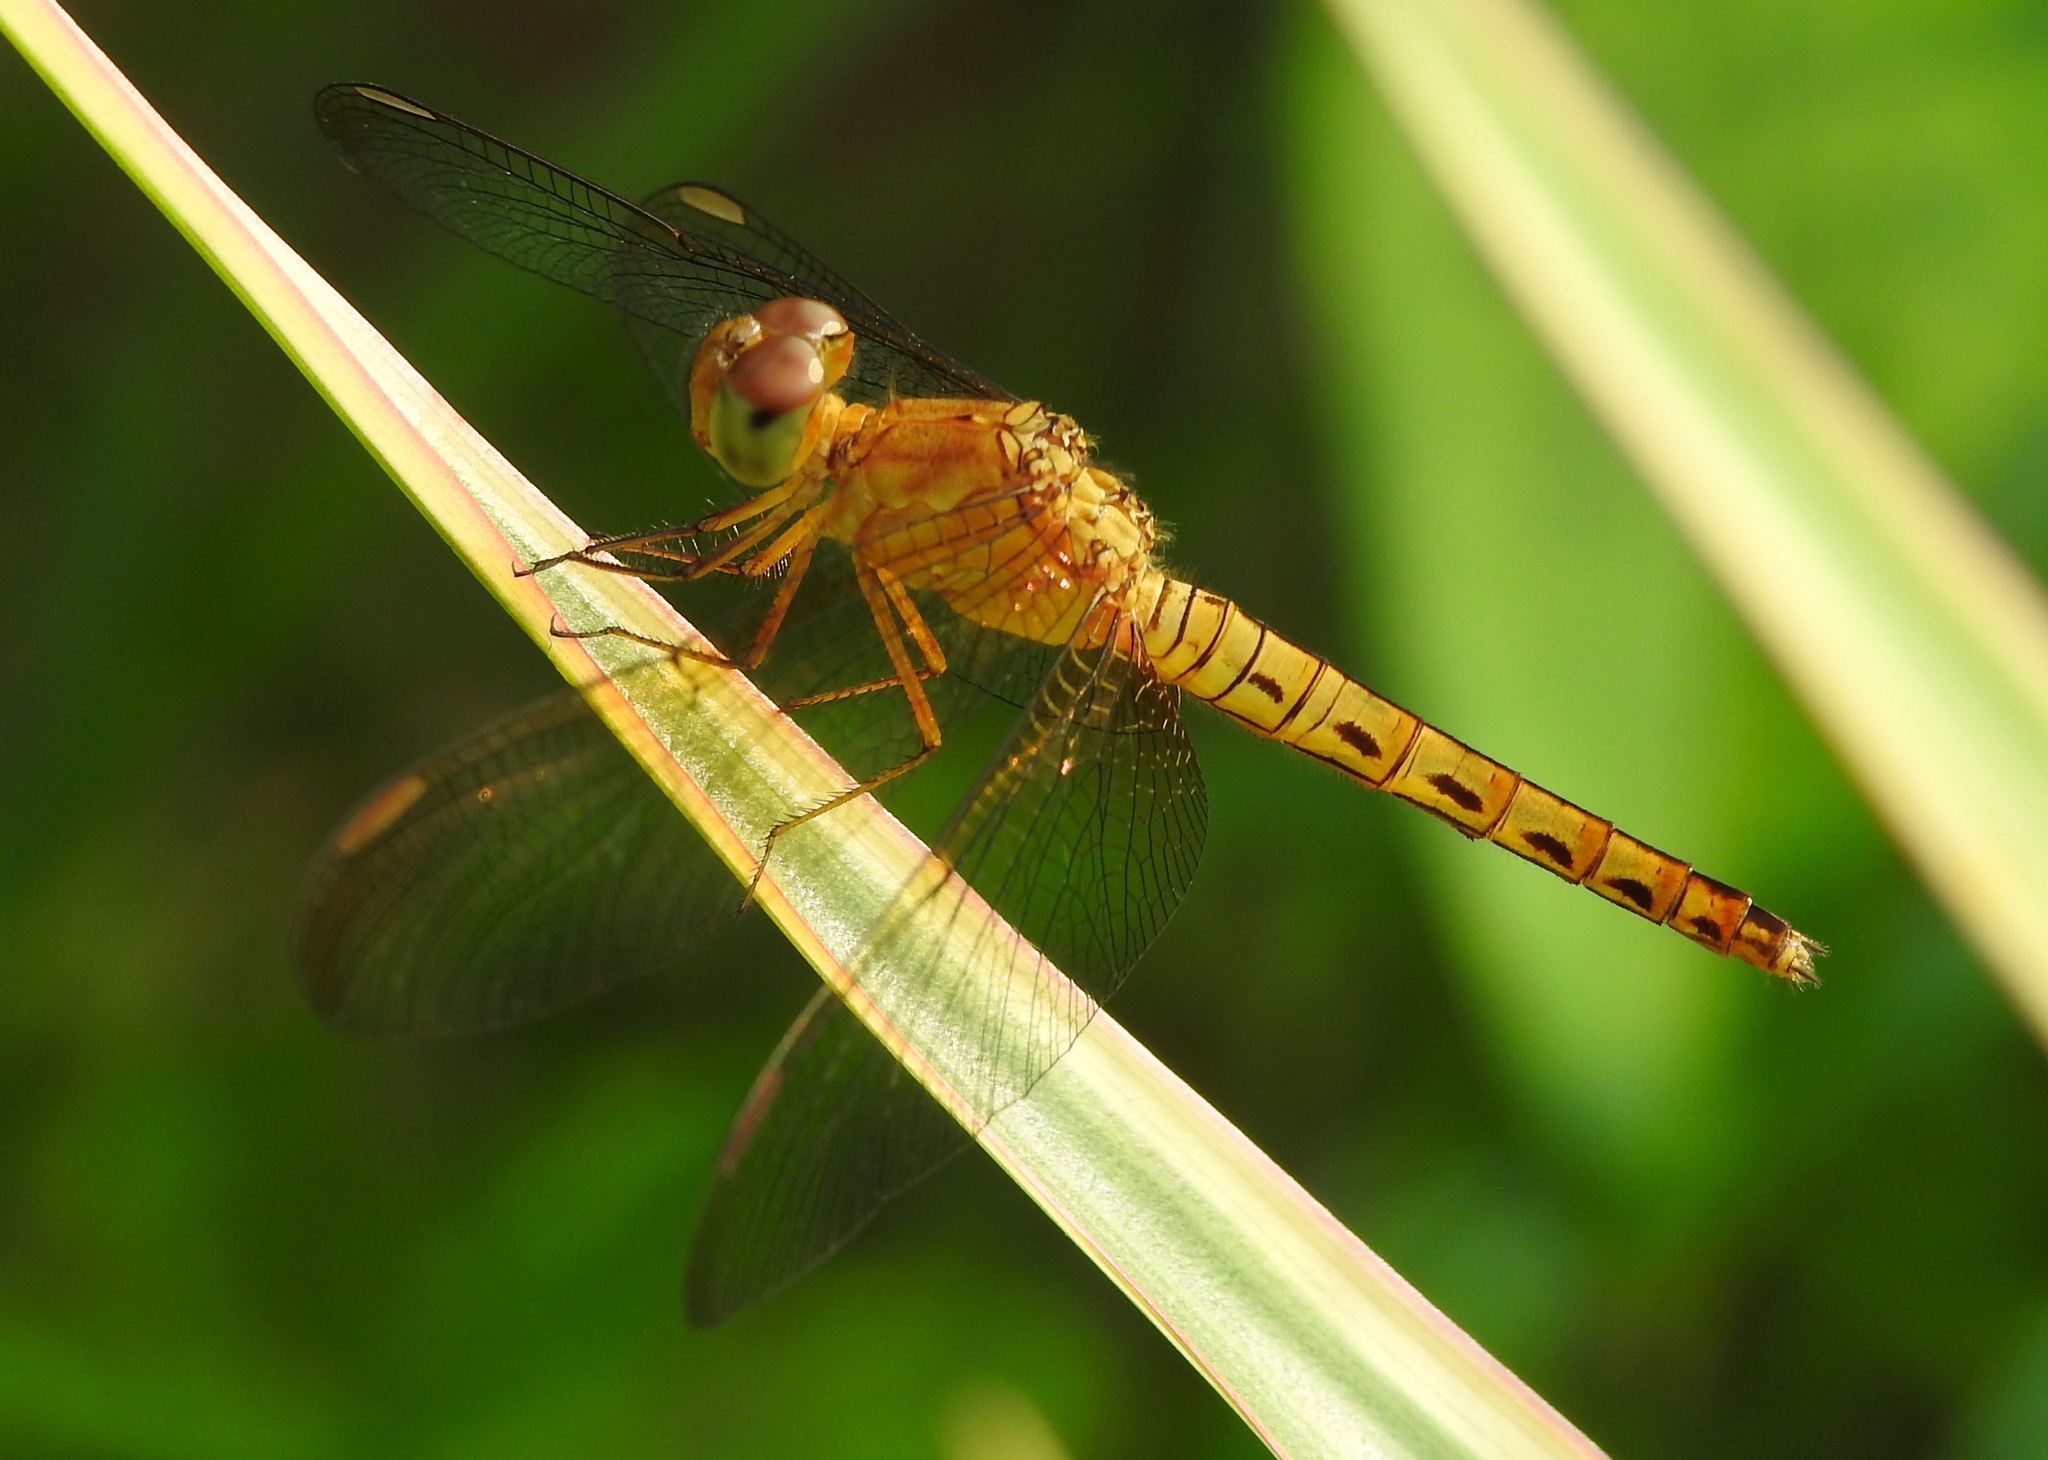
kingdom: Animalia
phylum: Arthropoda
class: Insecta
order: Odonata
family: Libellulidae
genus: Neurothemis
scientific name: Neurothemis fluctuans
